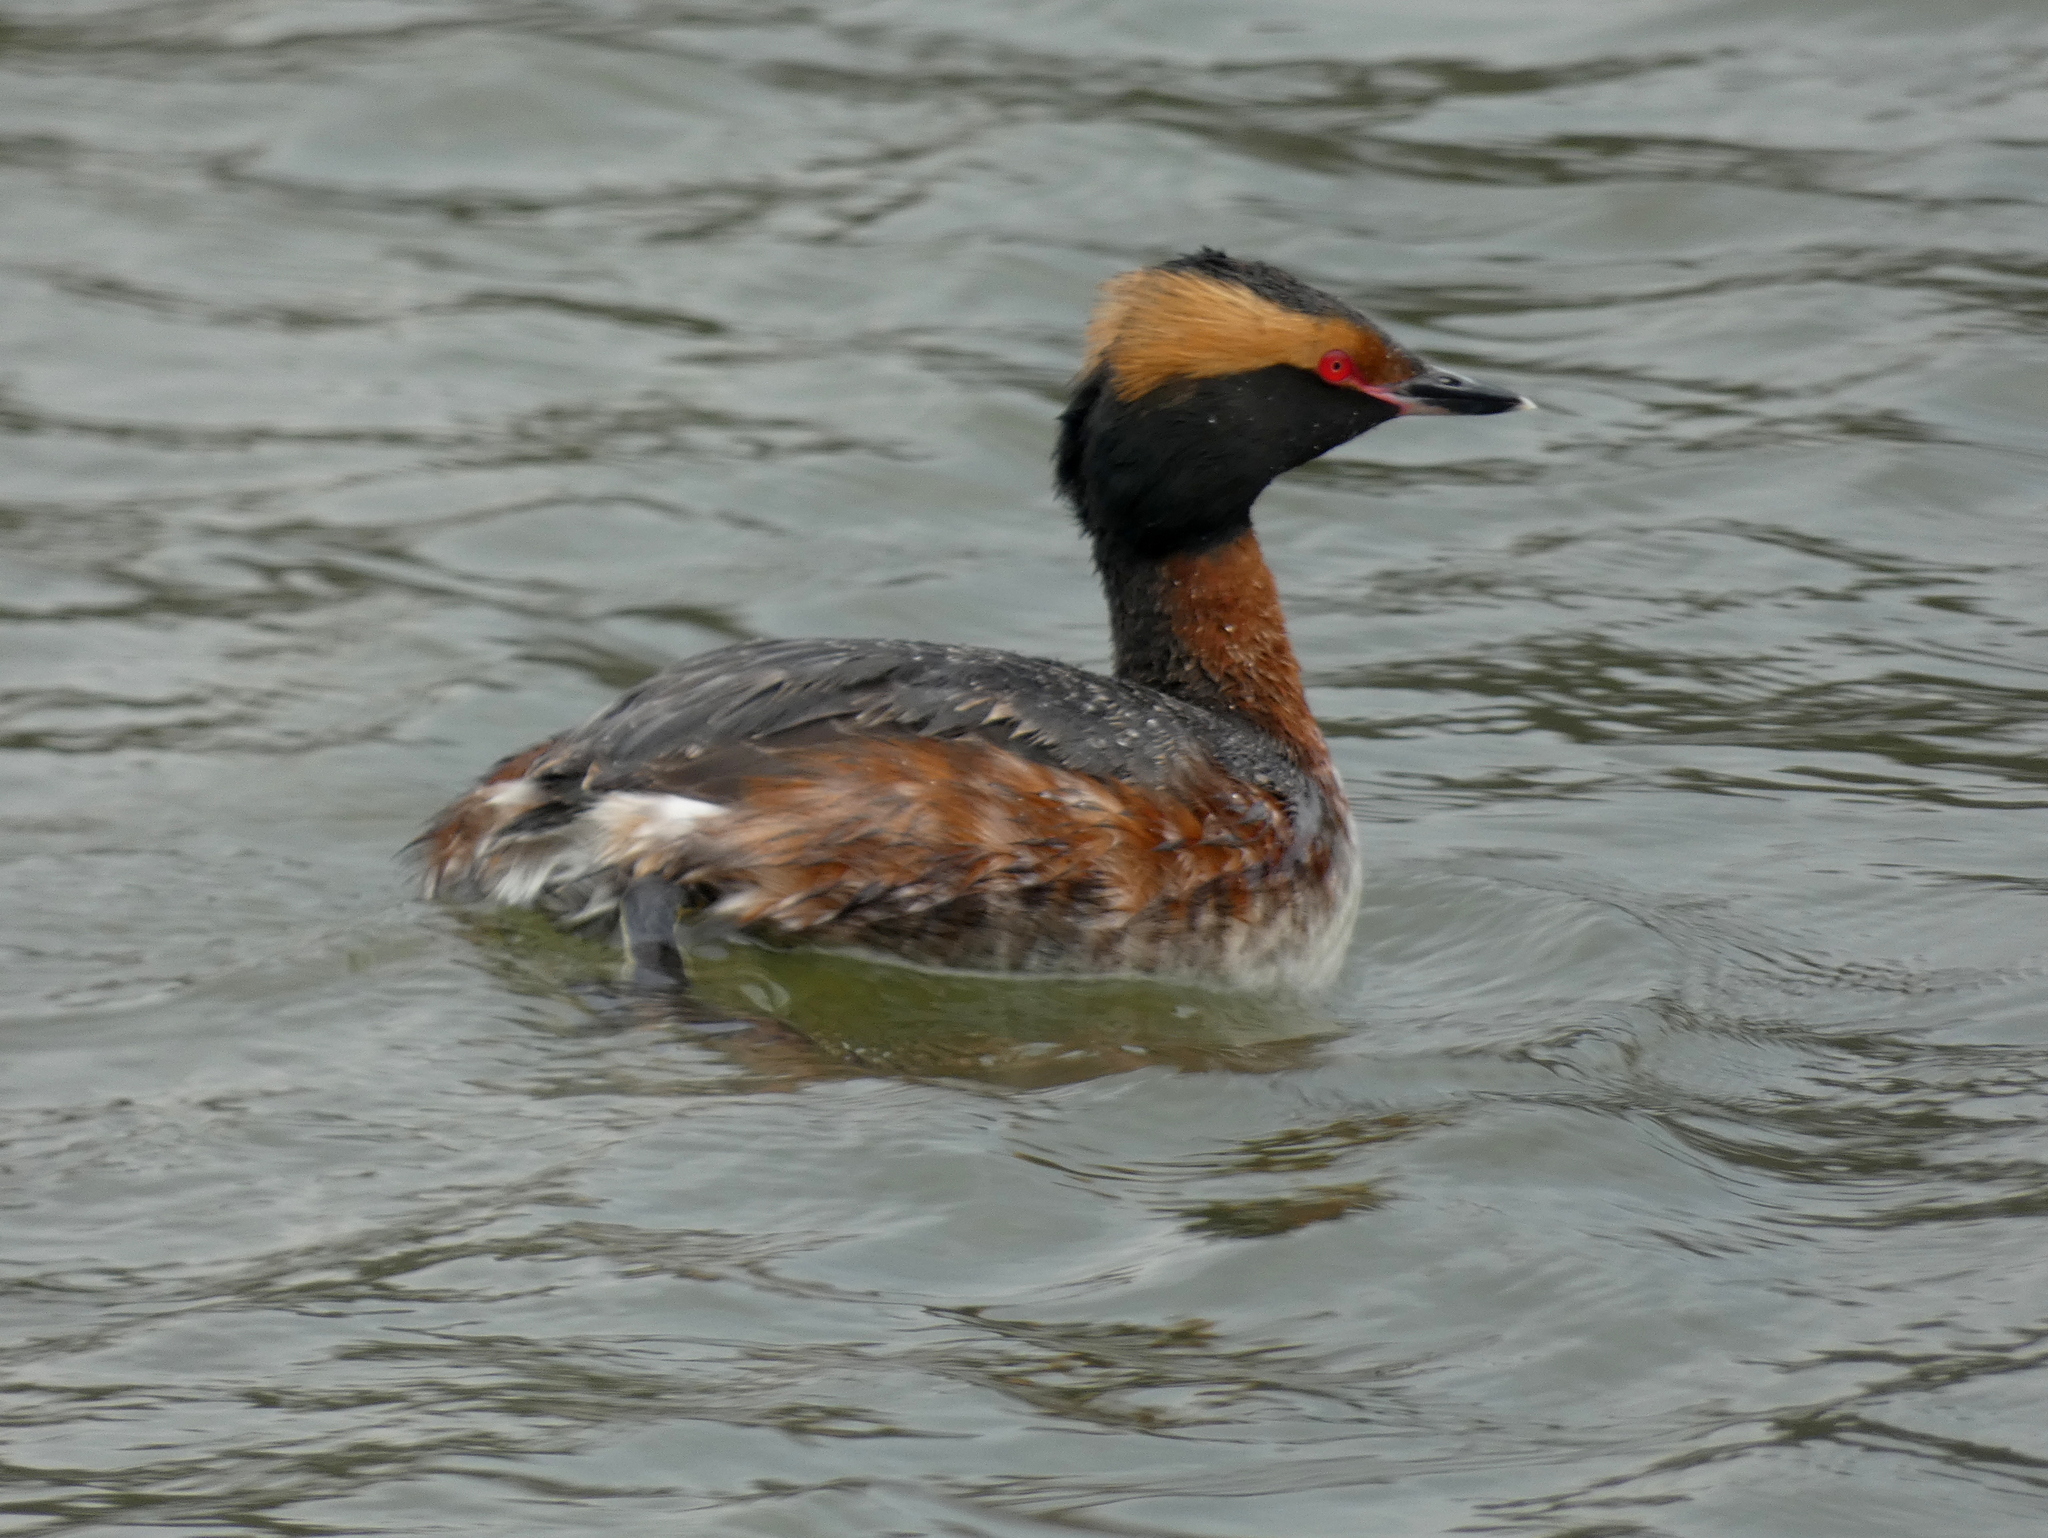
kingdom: Animalia
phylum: Chordata
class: Aves
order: Podicipediformes
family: Podicipedidae
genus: Podiceps
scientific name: Podiceps auritus
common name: Horned grebe
